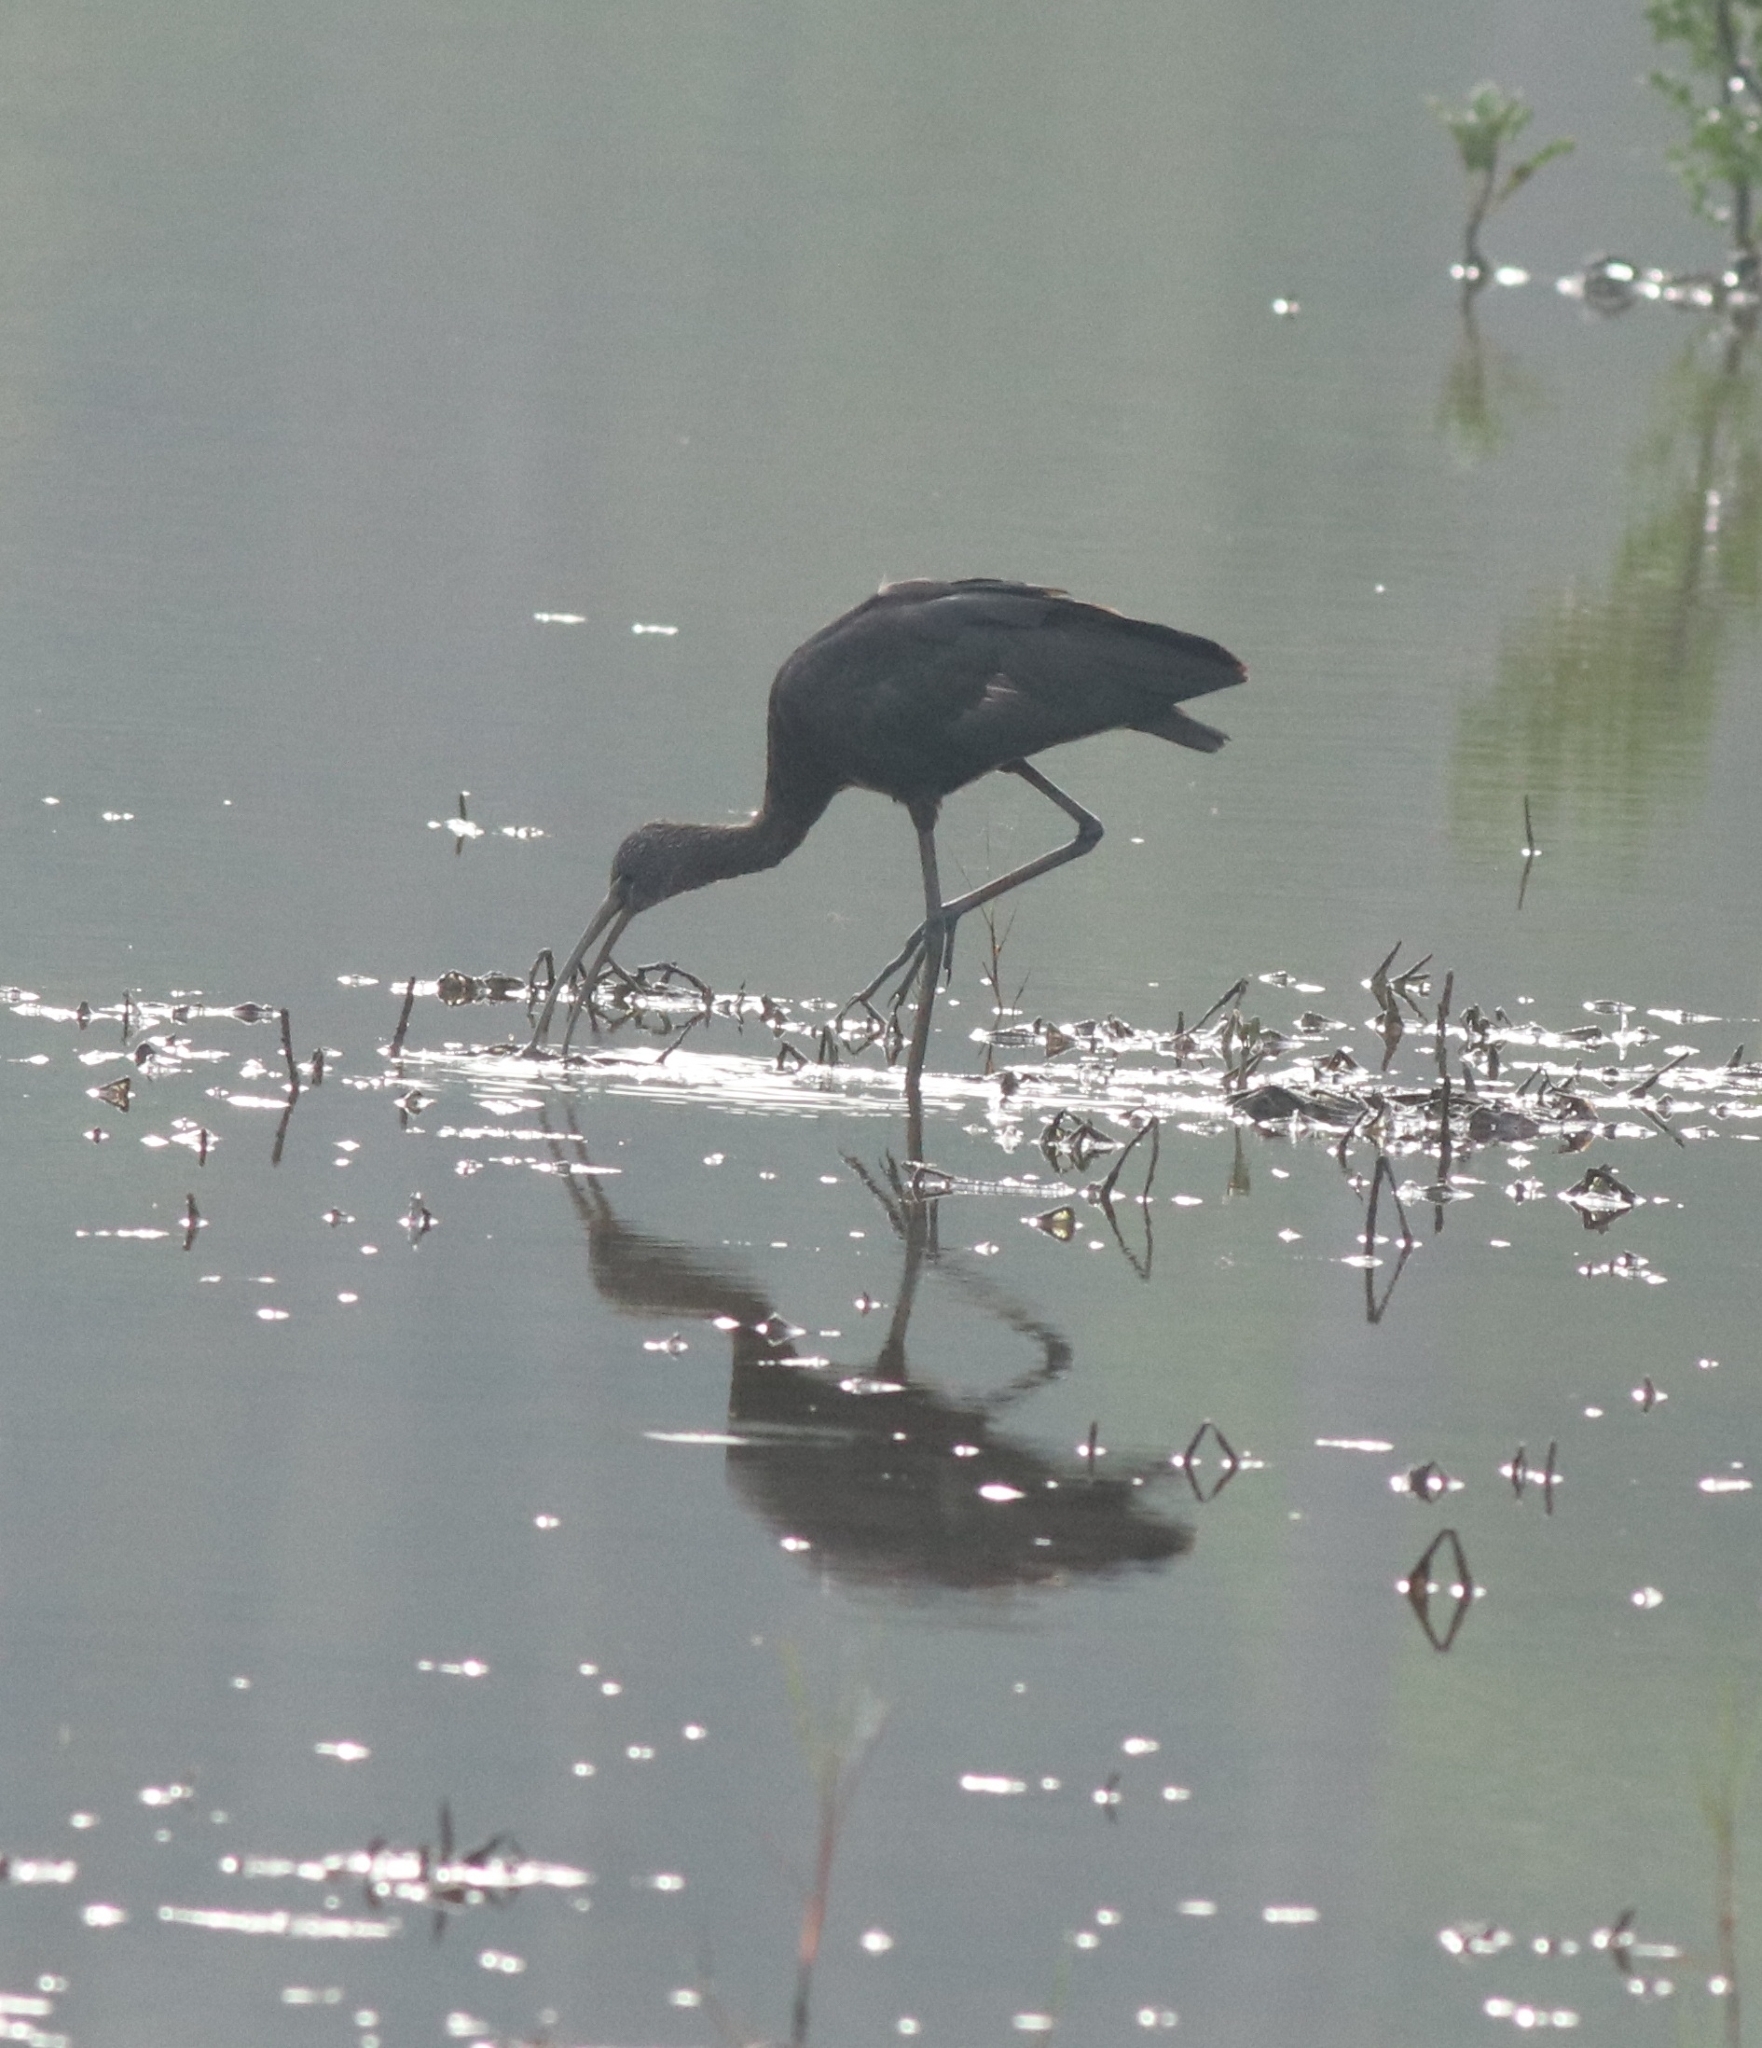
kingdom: Animalia
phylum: Chordata
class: Aves
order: Pelecaniformes
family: Threskiornithidae
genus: Plegadis
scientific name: Plegadis falcinellus
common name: Glossy ibis
